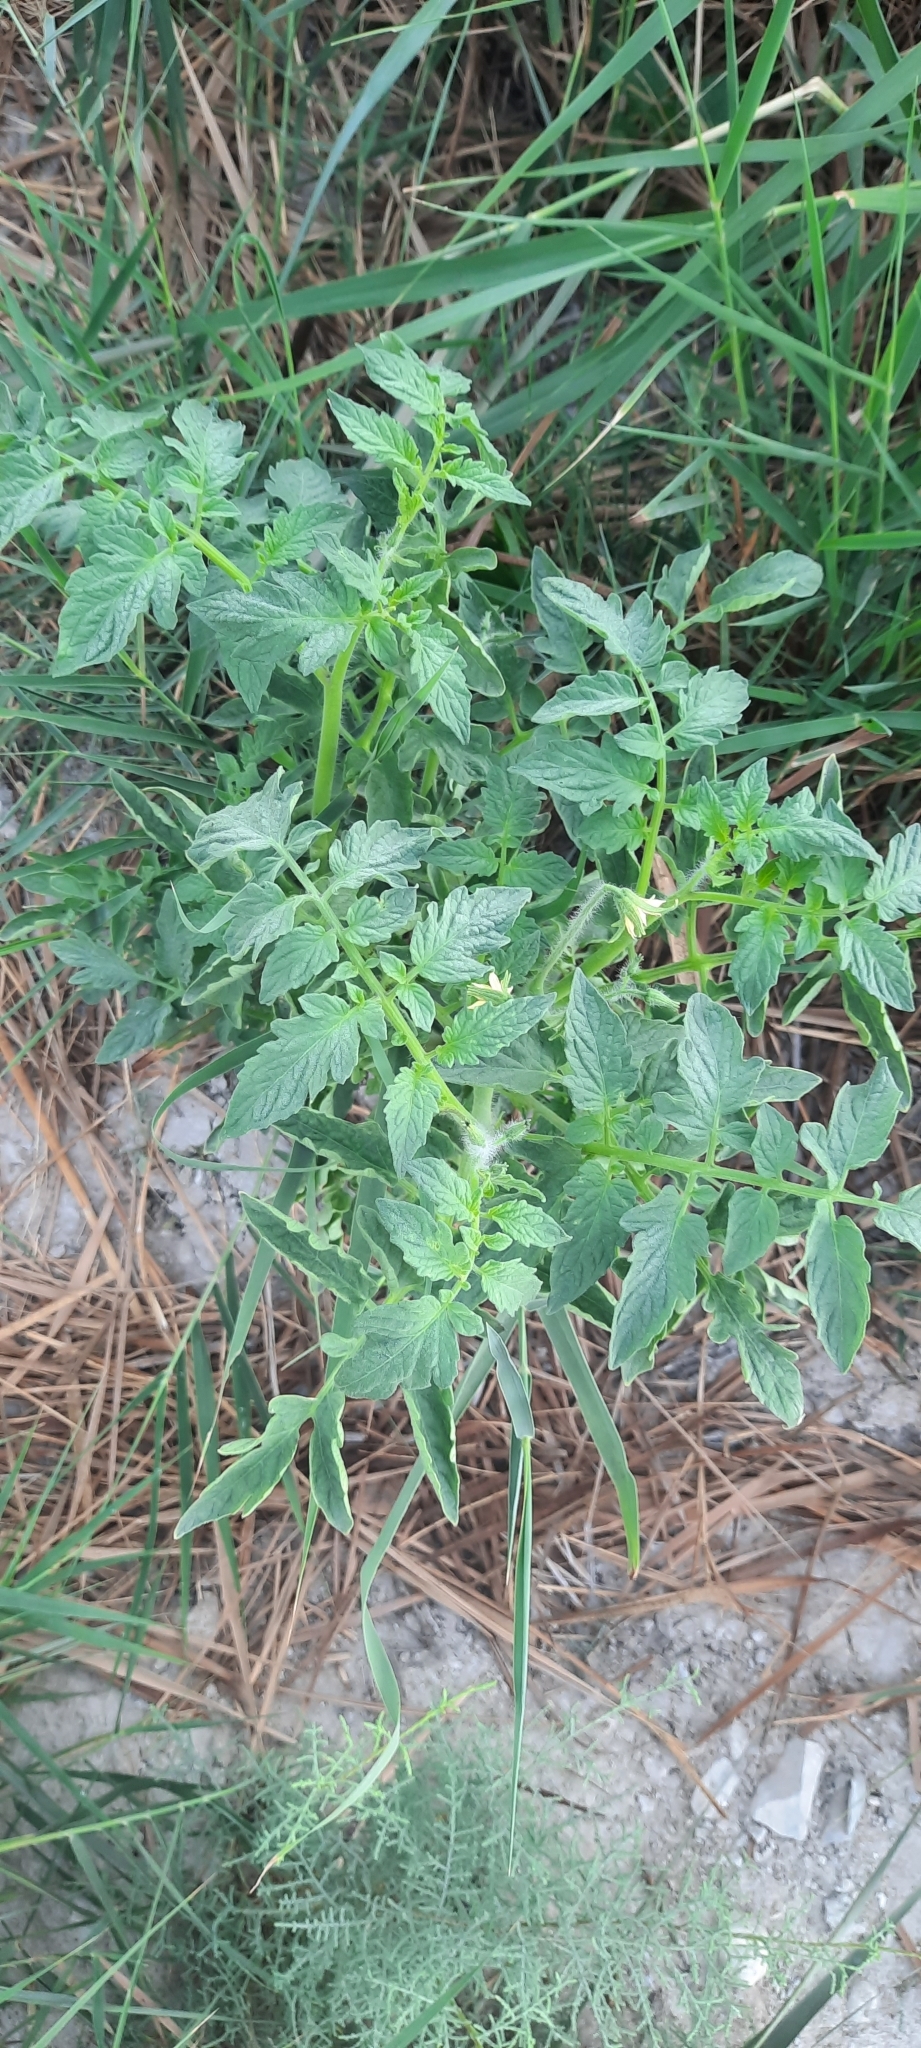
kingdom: Plantae
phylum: Tracheophyta
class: Magnoliopsida
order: Solanales
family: Solanaceae
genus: Solanum
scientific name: Solanum lycopersicum
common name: Garden tomato
